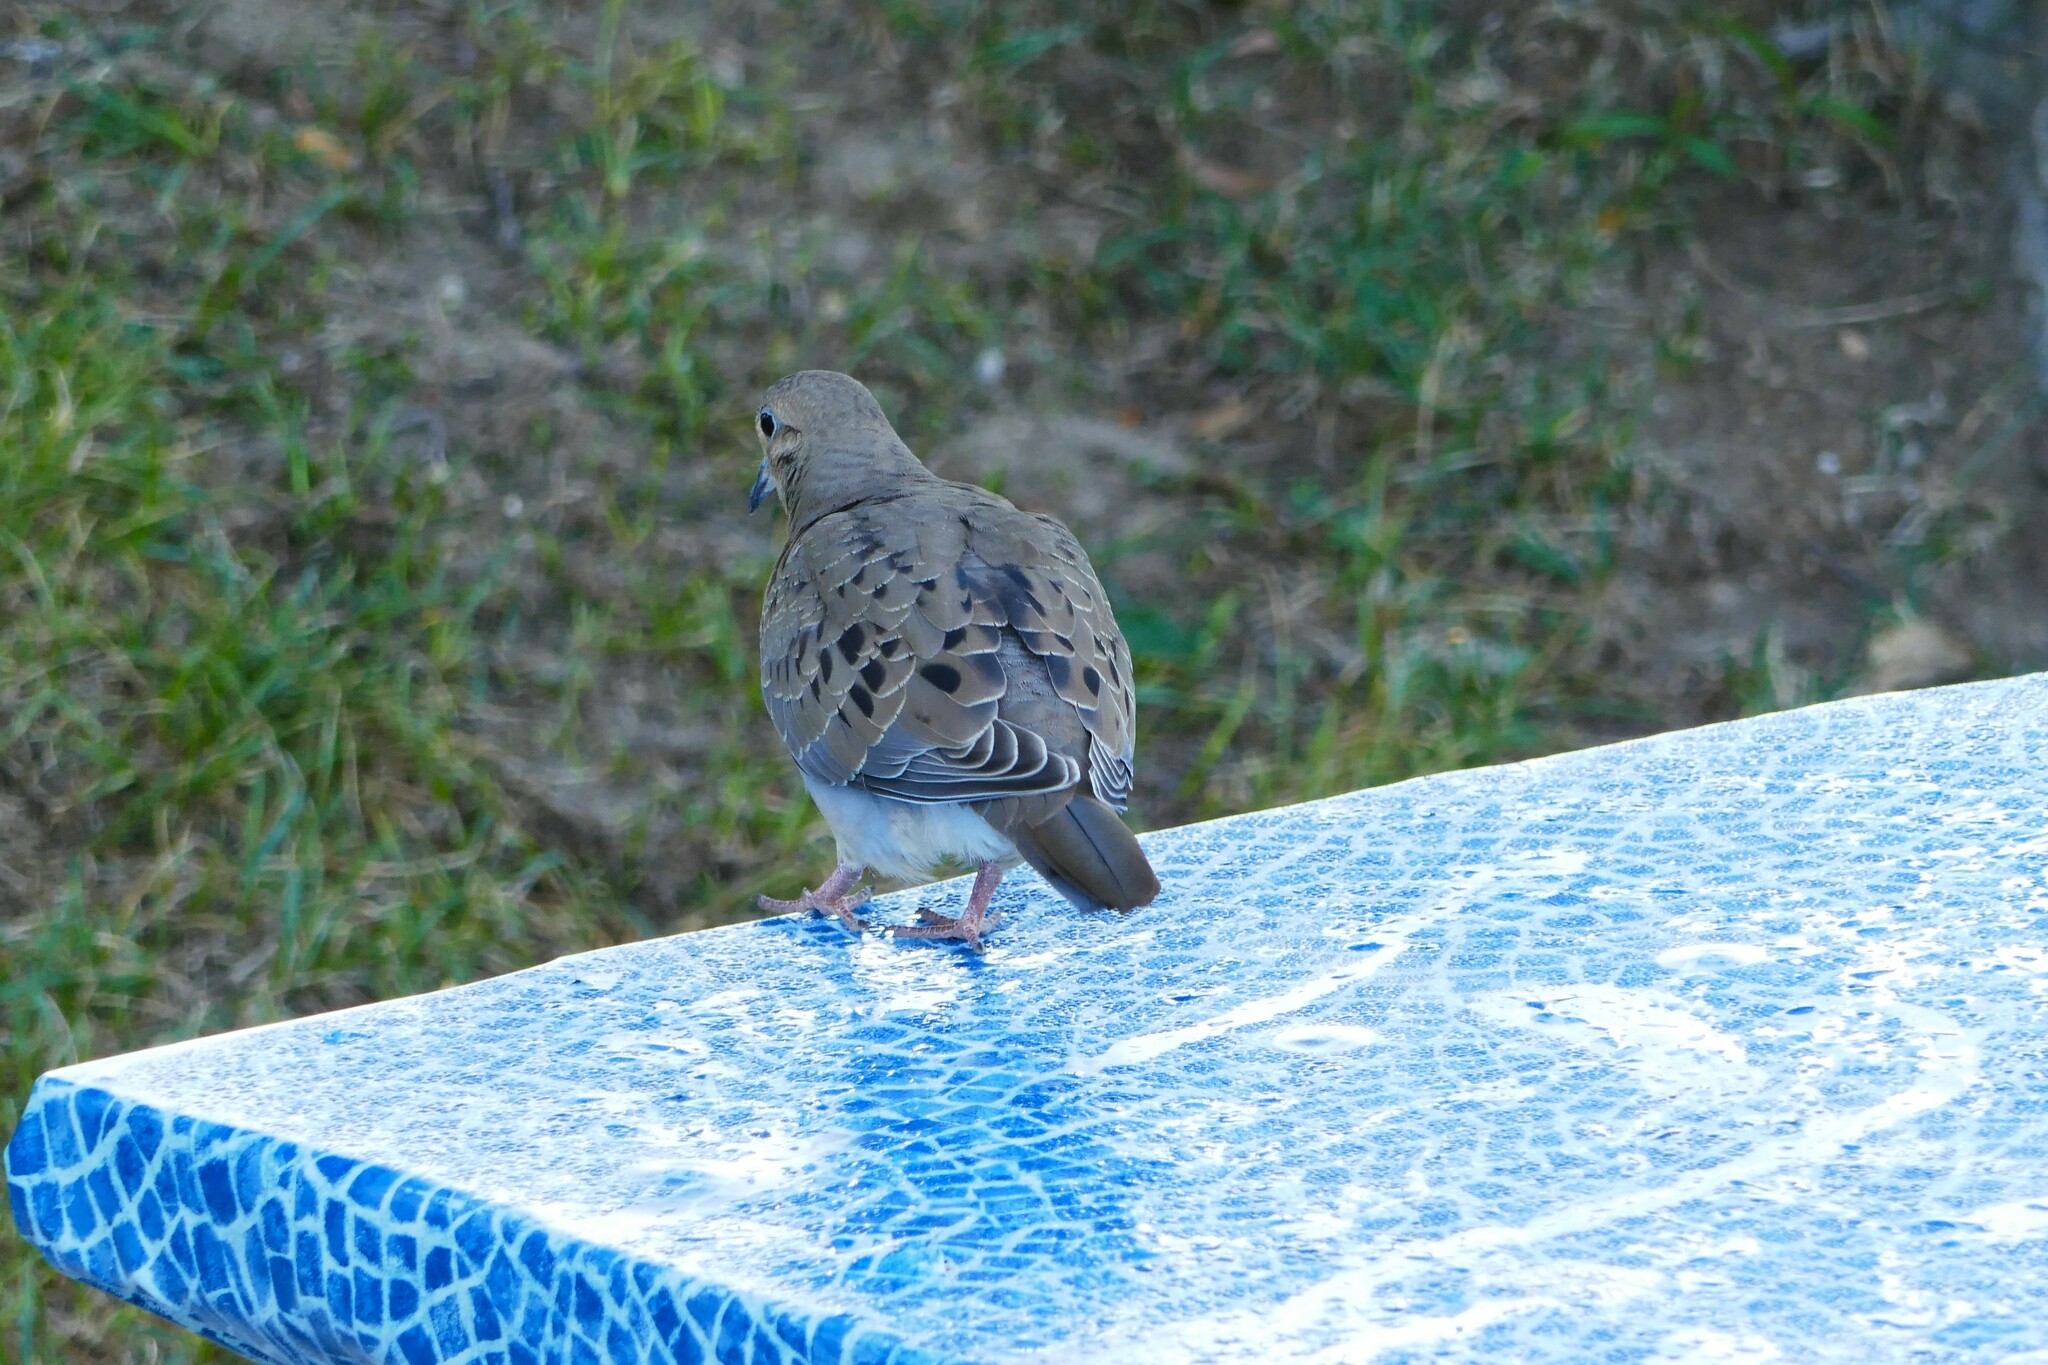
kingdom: Animalia
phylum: Chordata
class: Aves
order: Columbiformes
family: Columbidae
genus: Zenaida
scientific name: Zenaida macroura
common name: Mourning dove
